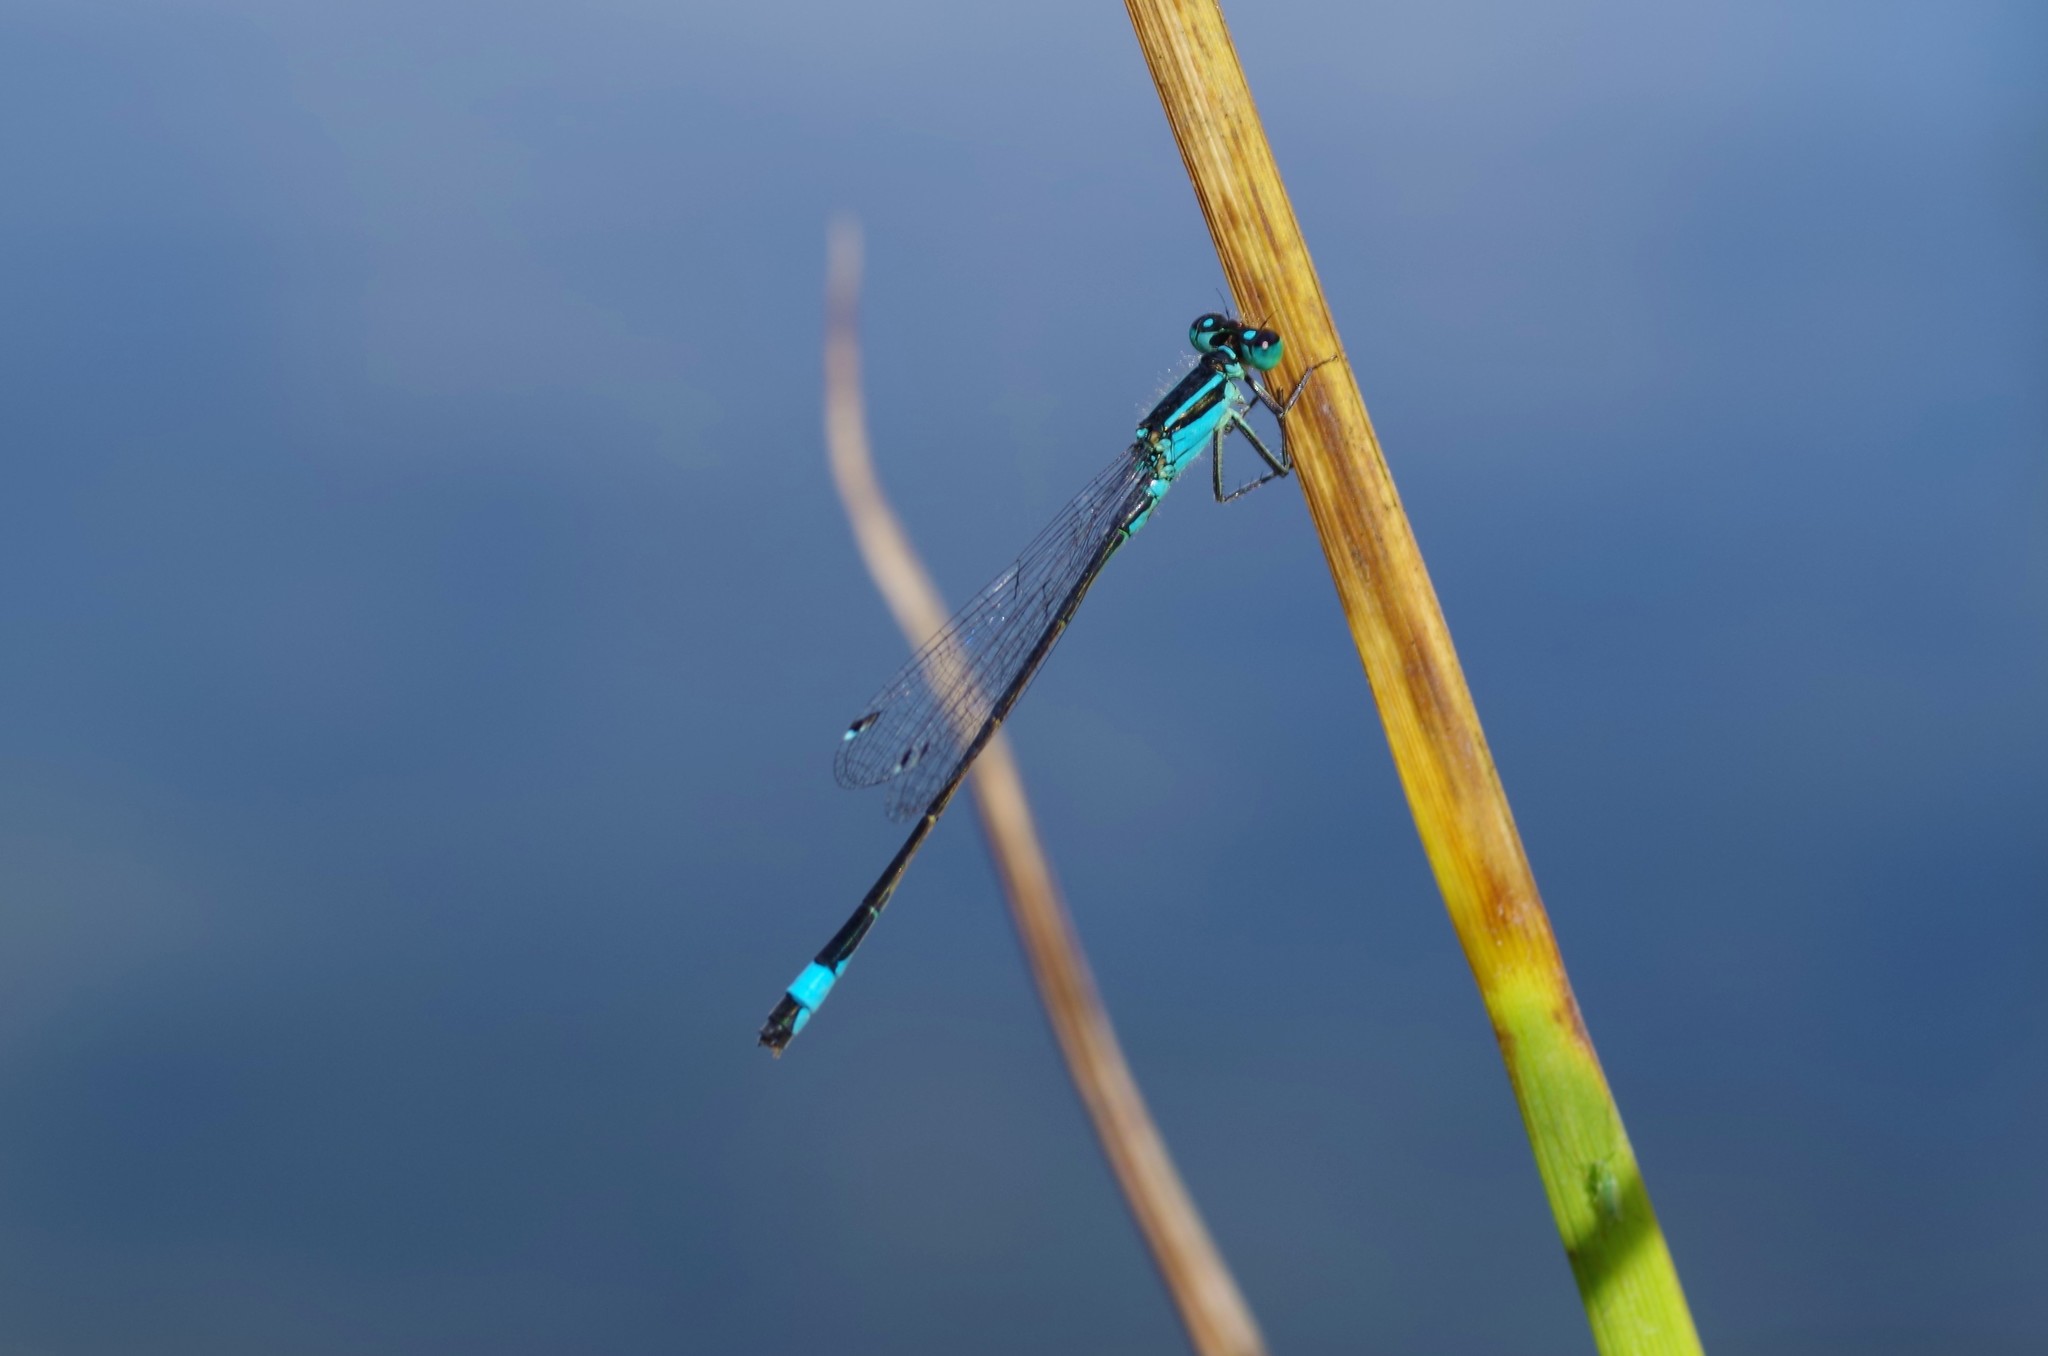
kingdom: Animalia
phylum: Arthropoda
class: Insecta
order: Odonata
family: Coenagrionidae
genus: Ischnura
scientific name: Ischnura elegans
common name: Blue-tailed damselfly
